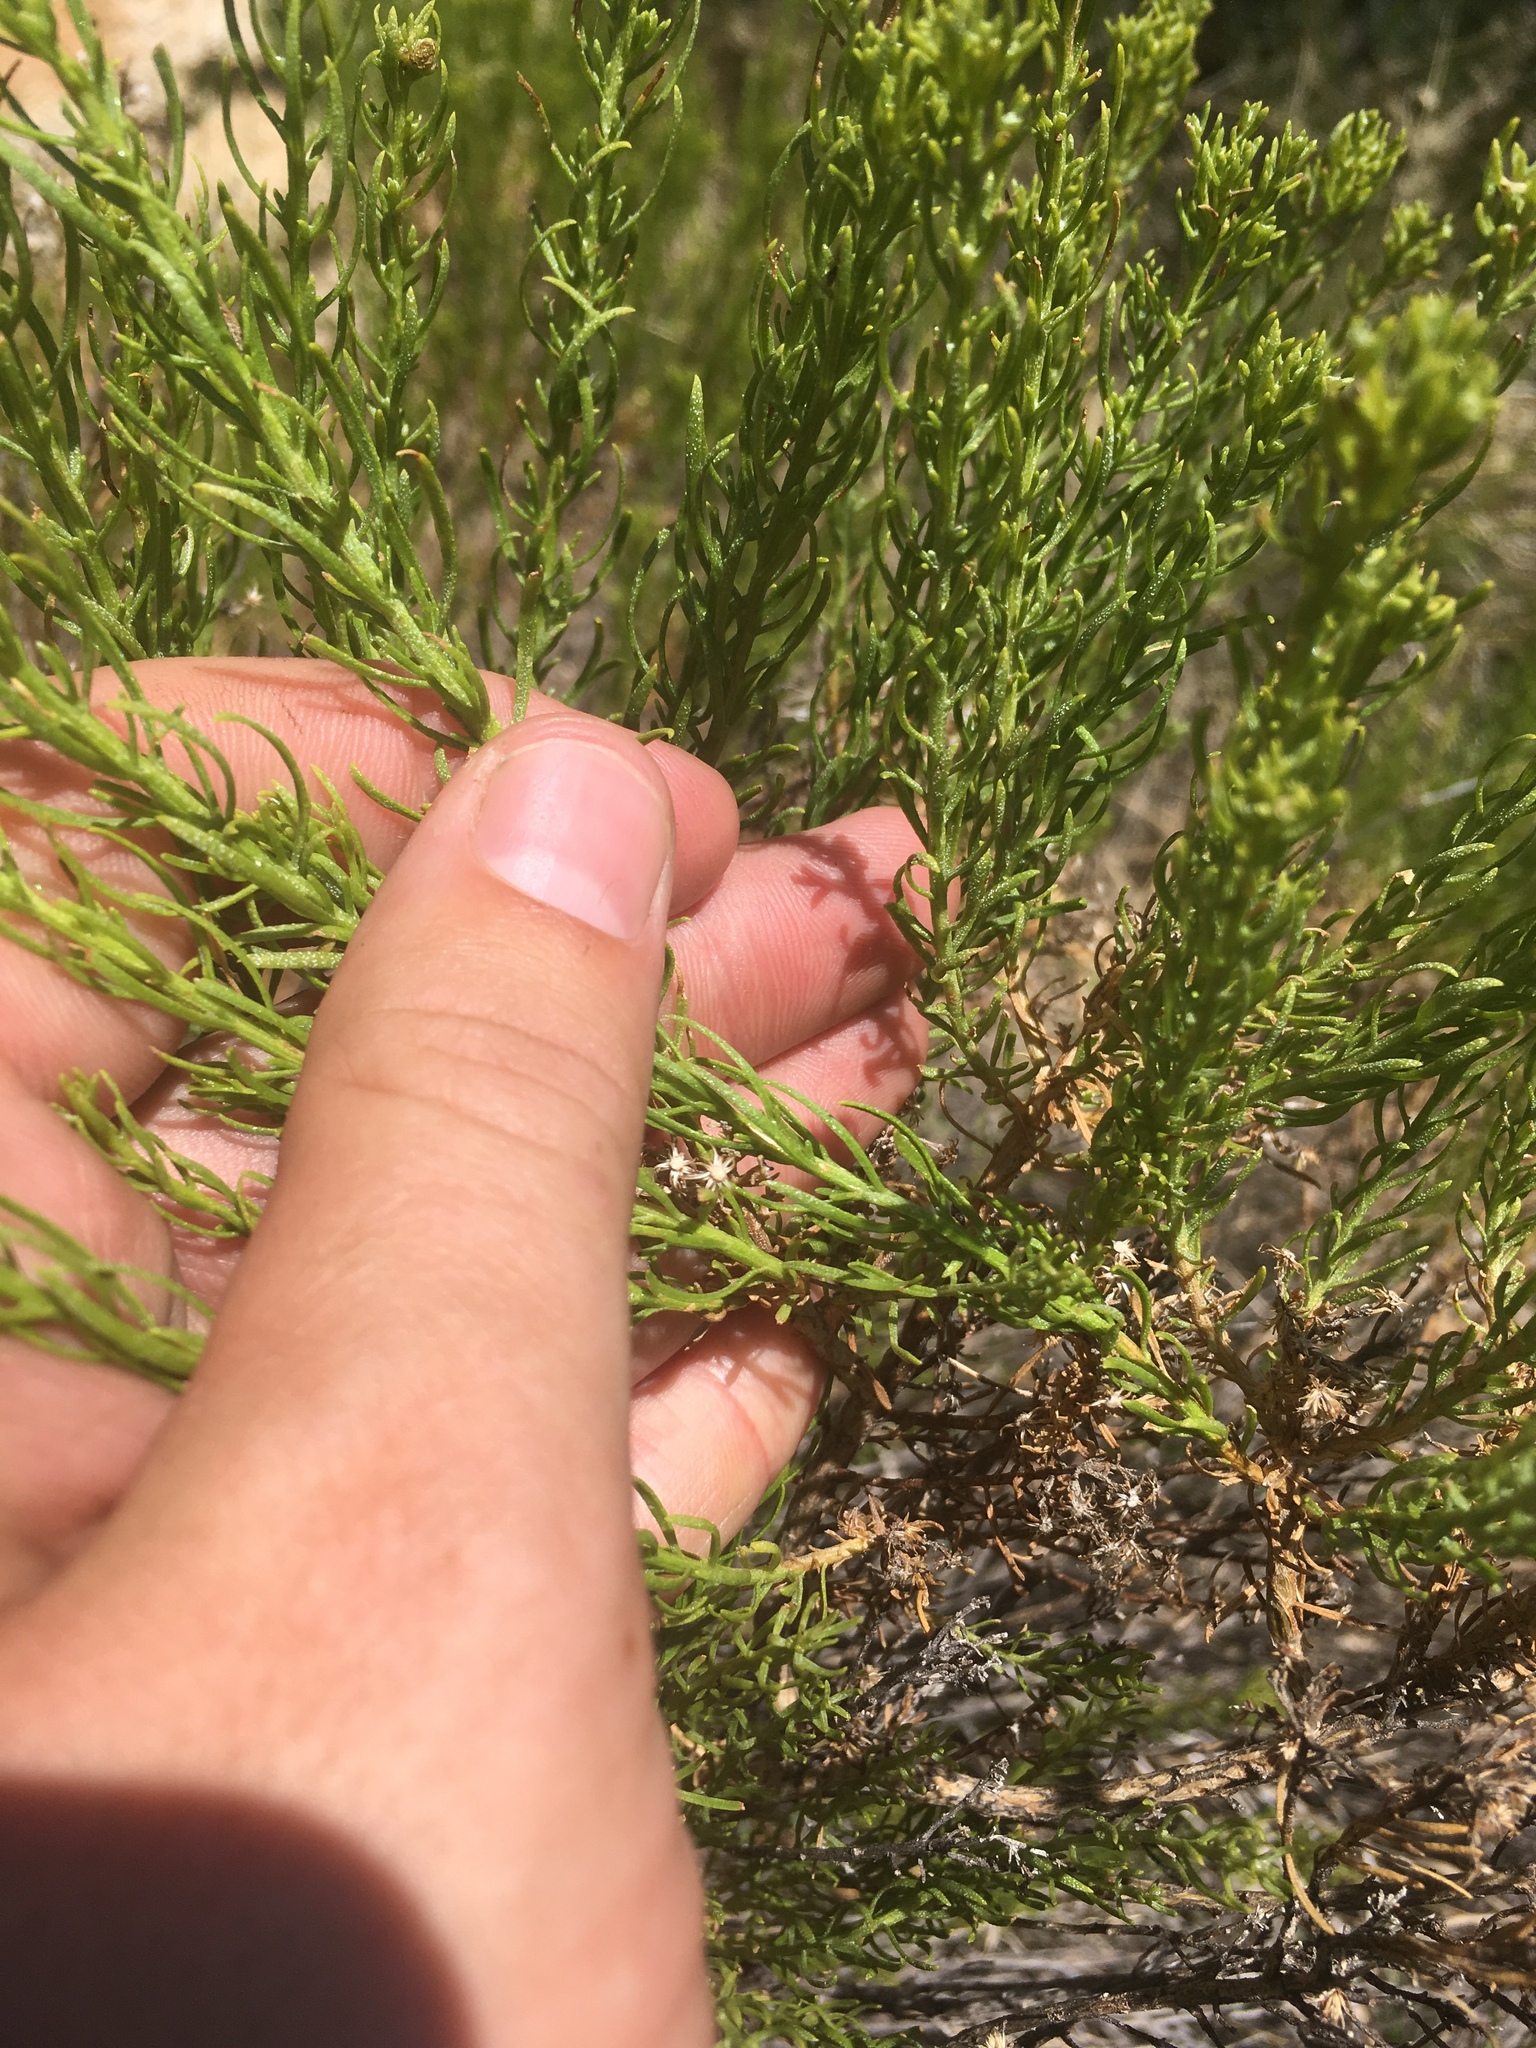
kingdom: Plantae
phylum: Tracheophyta
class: Magnoliopsida
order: Asterales
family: Asteraceae
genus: Ericameria
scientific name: Ericameria laricifolia
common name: Turpentine-bush
